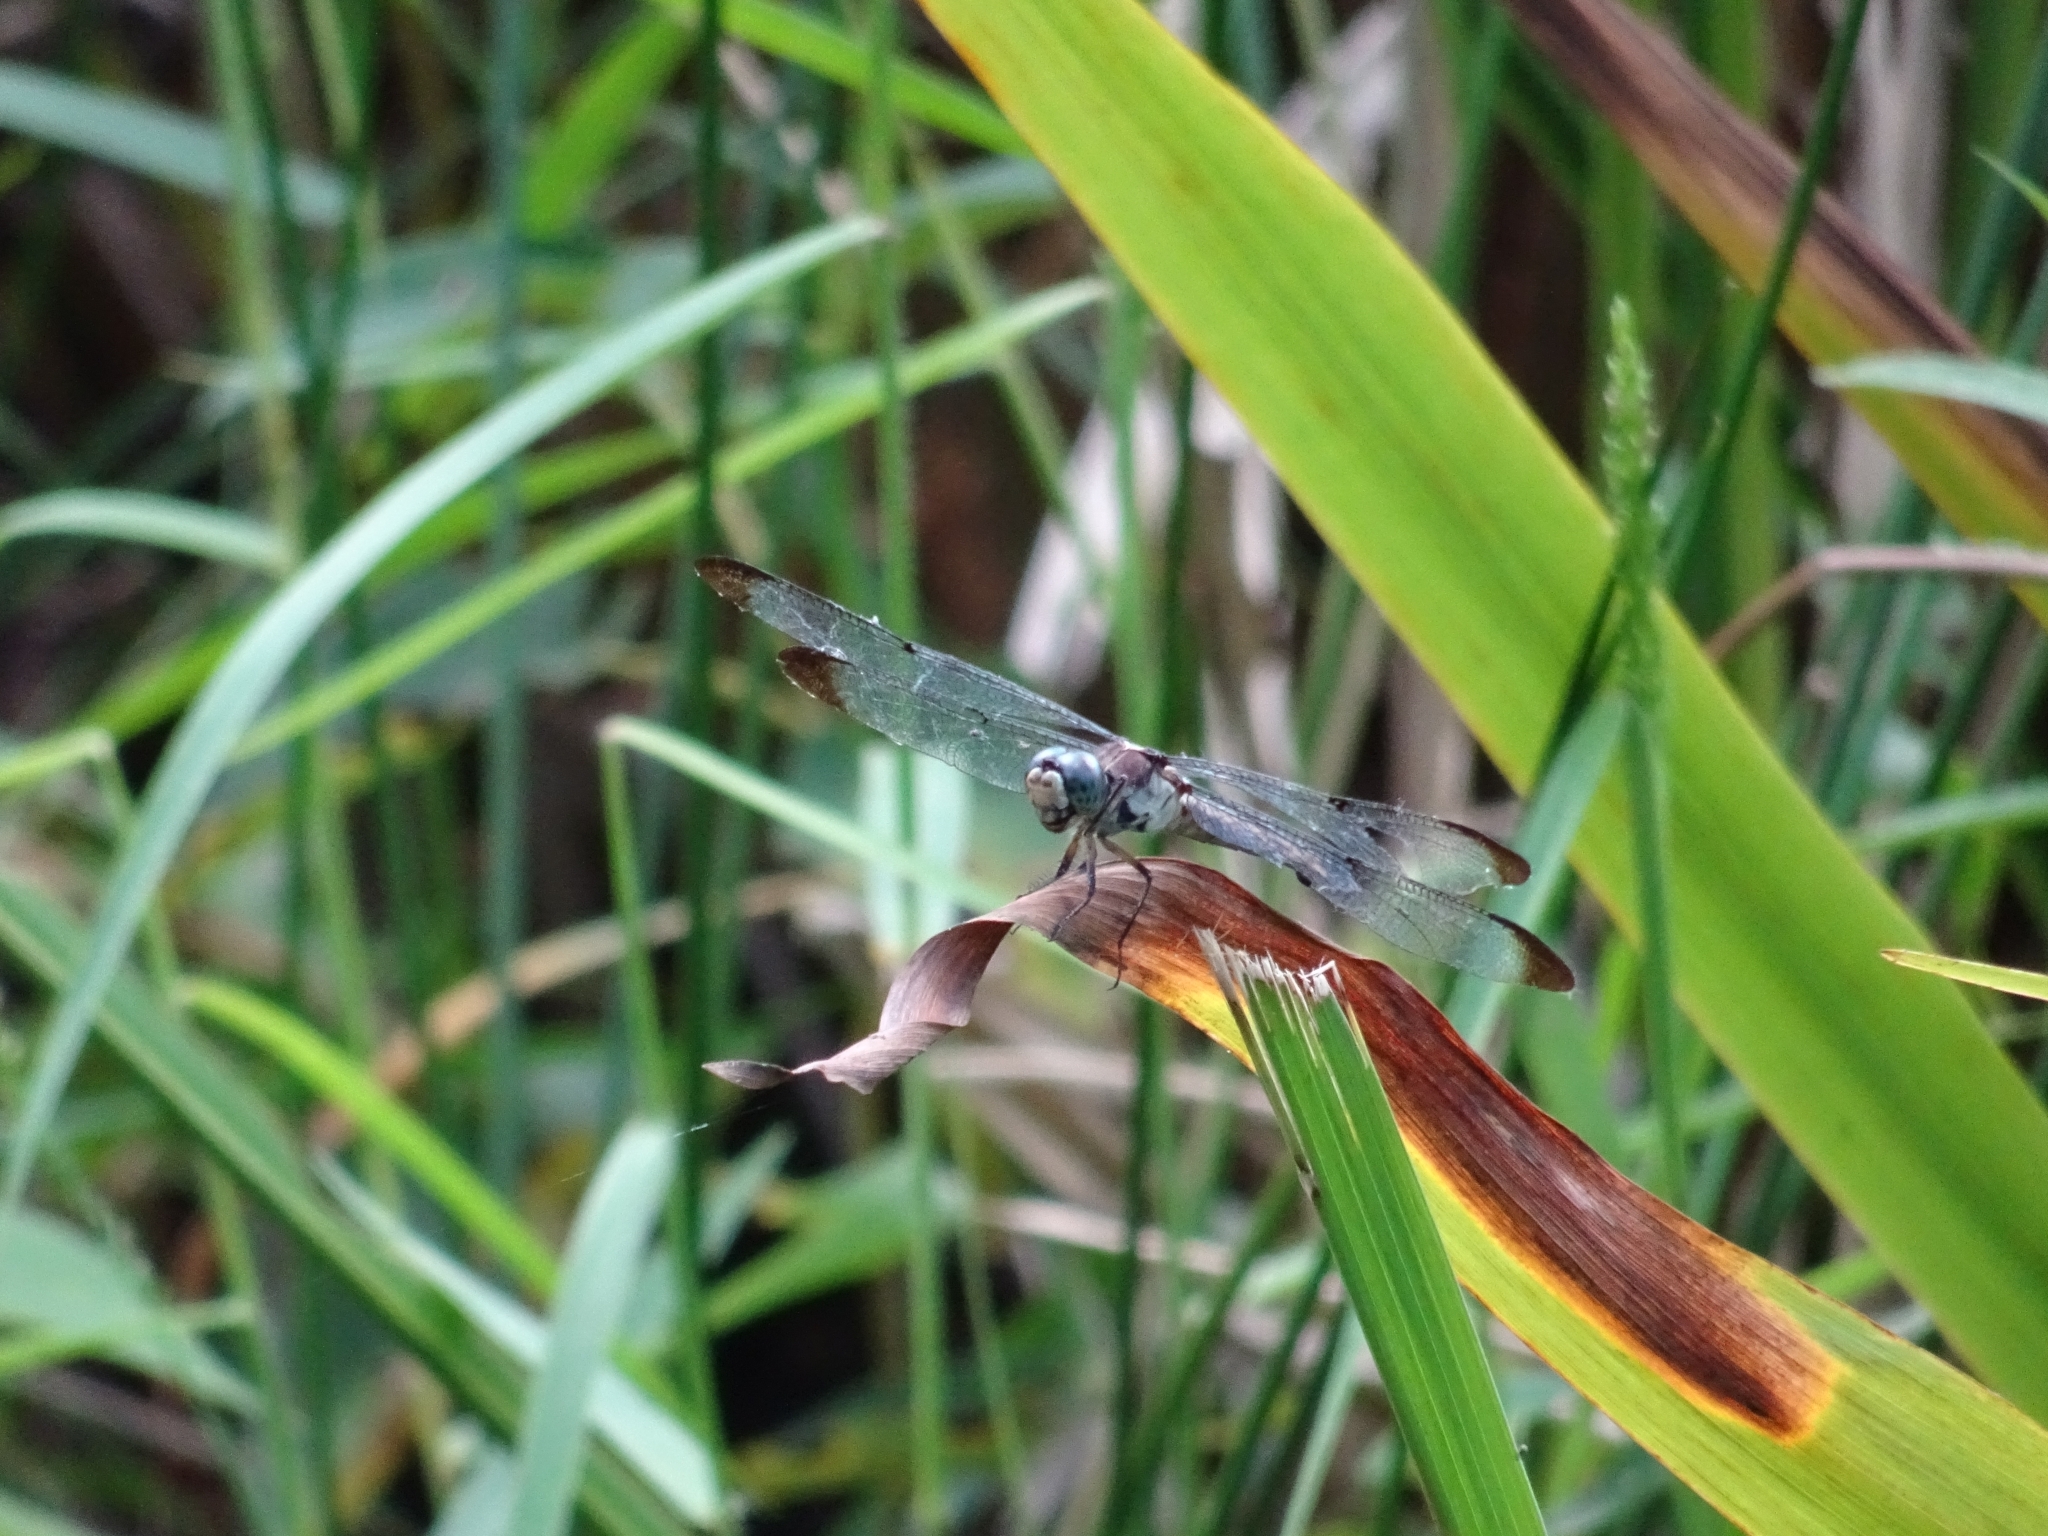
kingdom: Animalia
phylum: Arthropoda
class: Insecta
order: Odonata
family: Libellulidae
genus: Libellula
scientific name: Libellula vibrans
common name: Great blue skimmer
